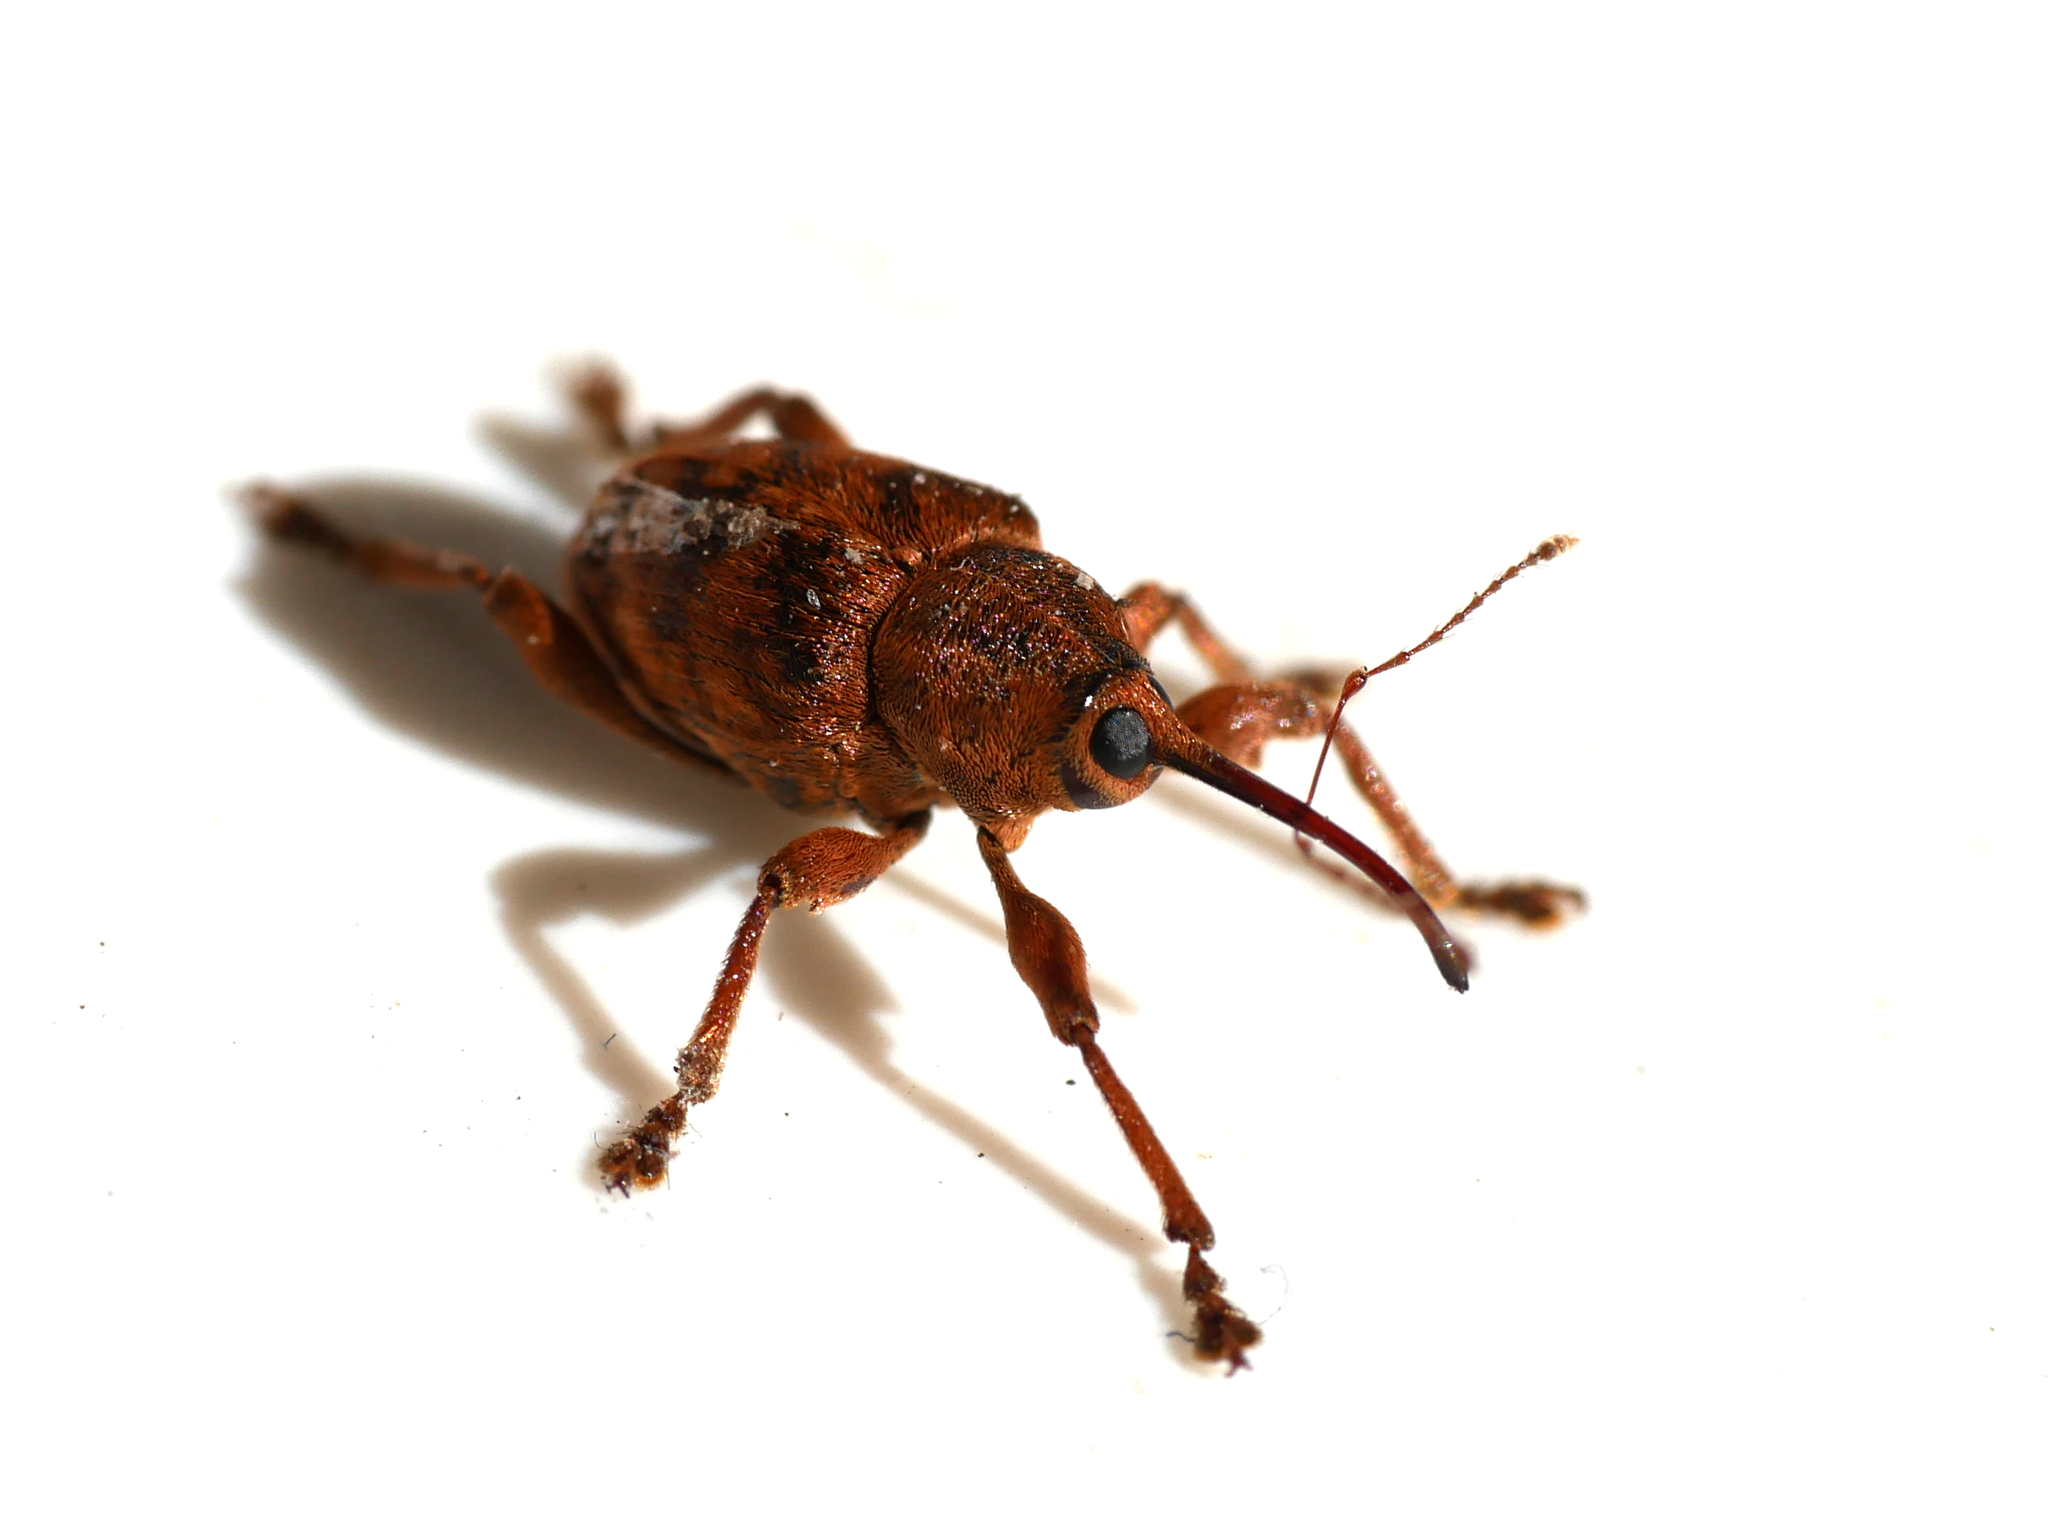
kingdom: Animalia
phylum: Arthropoda
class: Insecta
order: Coleoptera
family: Curculionidae
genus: Curculio
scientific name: Curculio venosus
